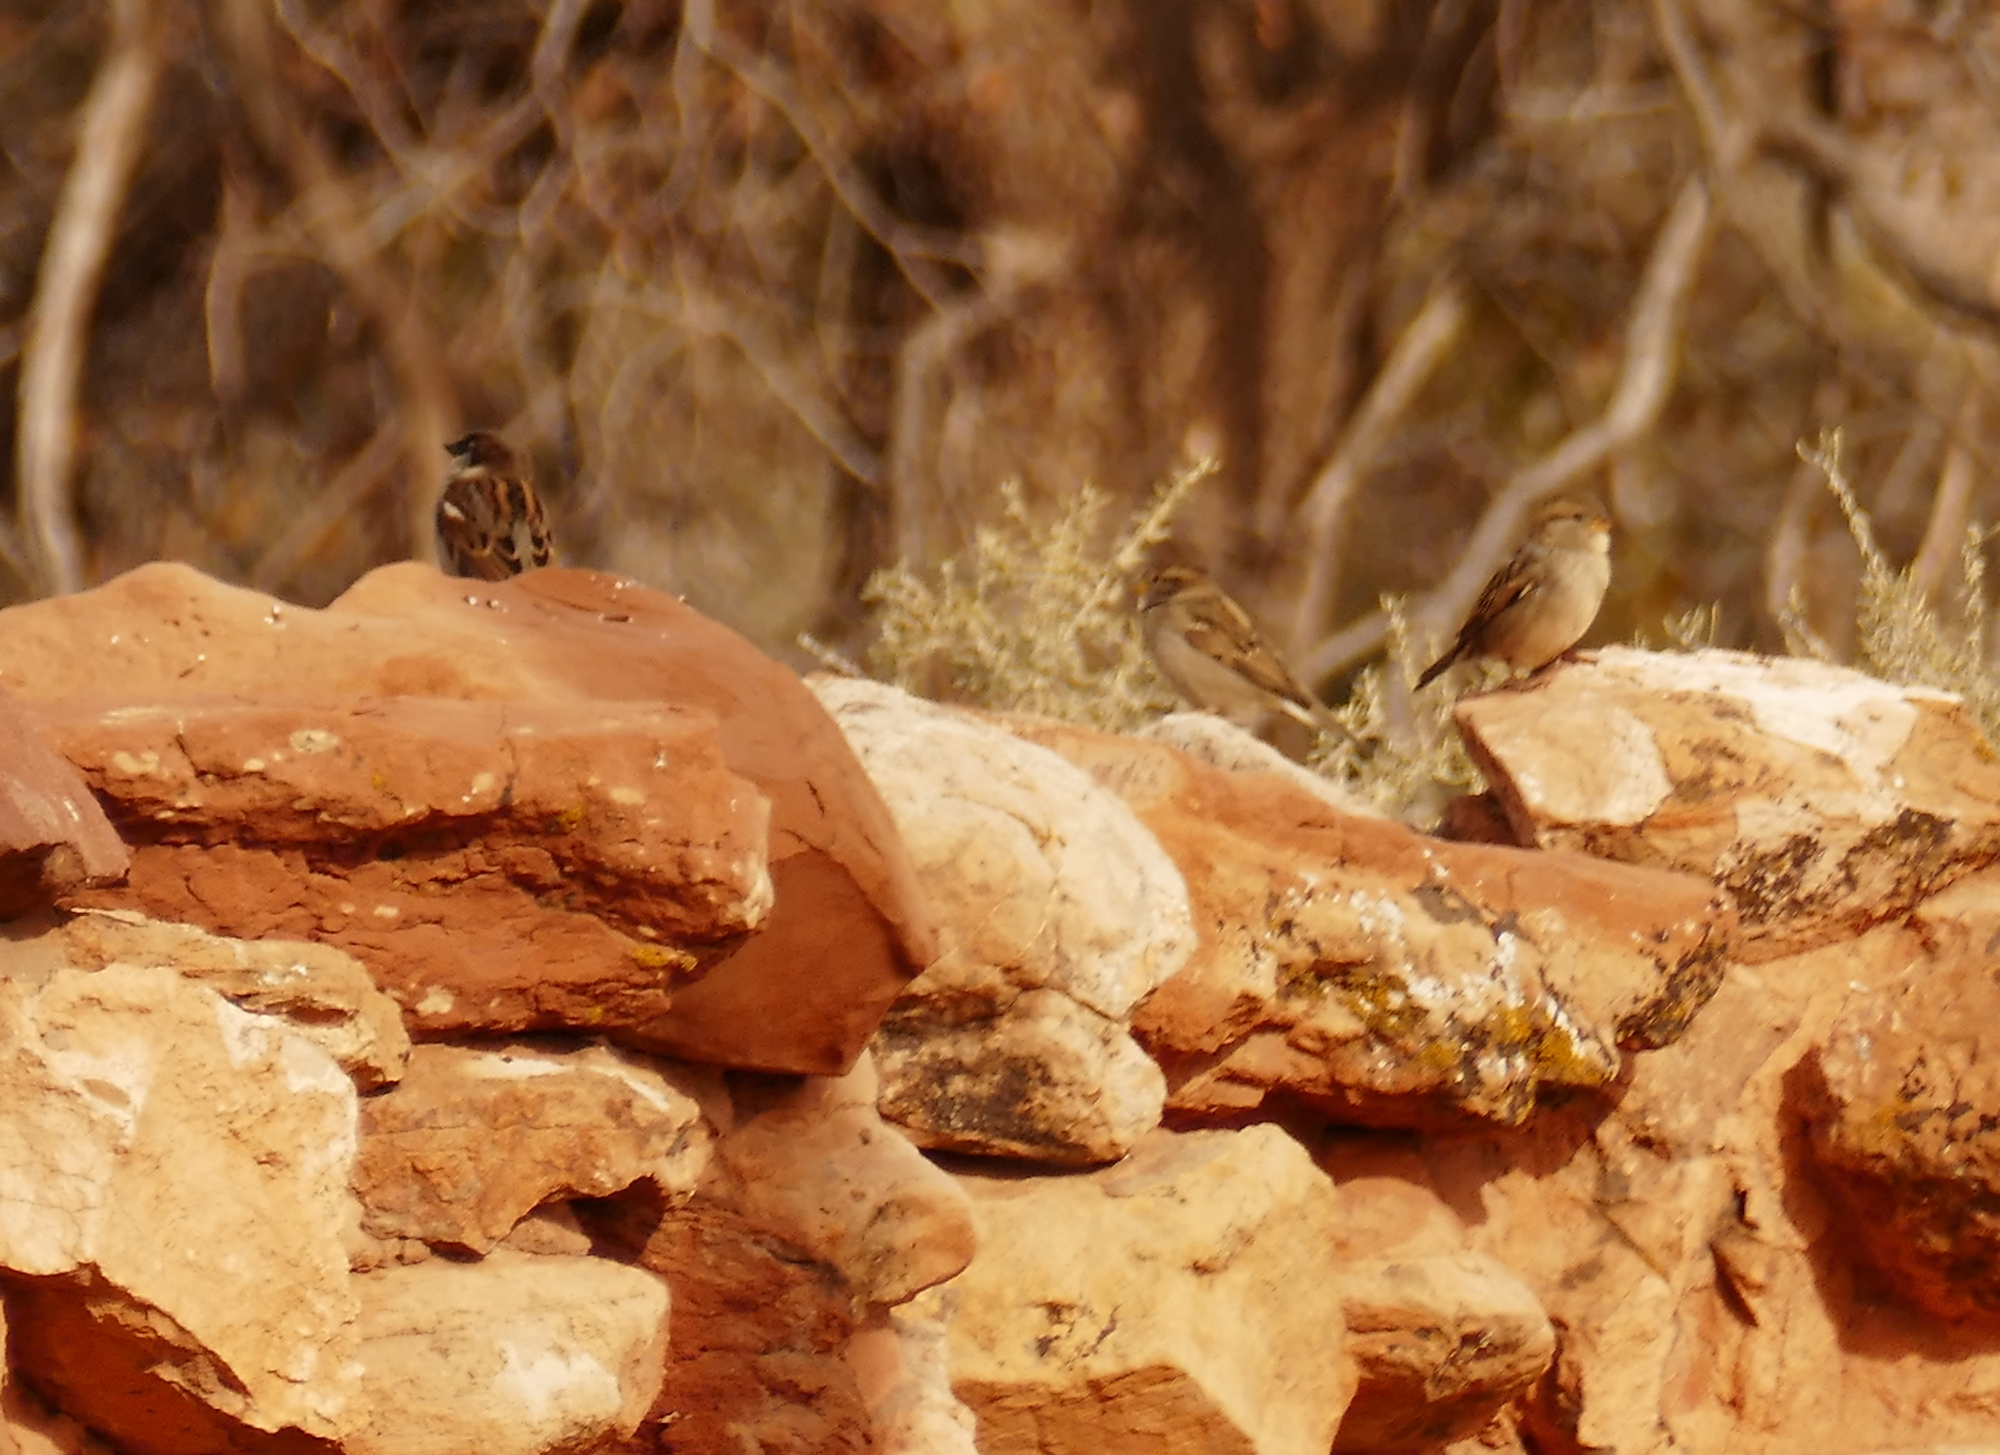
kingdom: Animalia
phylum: Chordata
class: Aves
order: Passeriformes
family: Passeridae
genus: Passer
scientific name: Passer domesticus
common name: House sparrow
